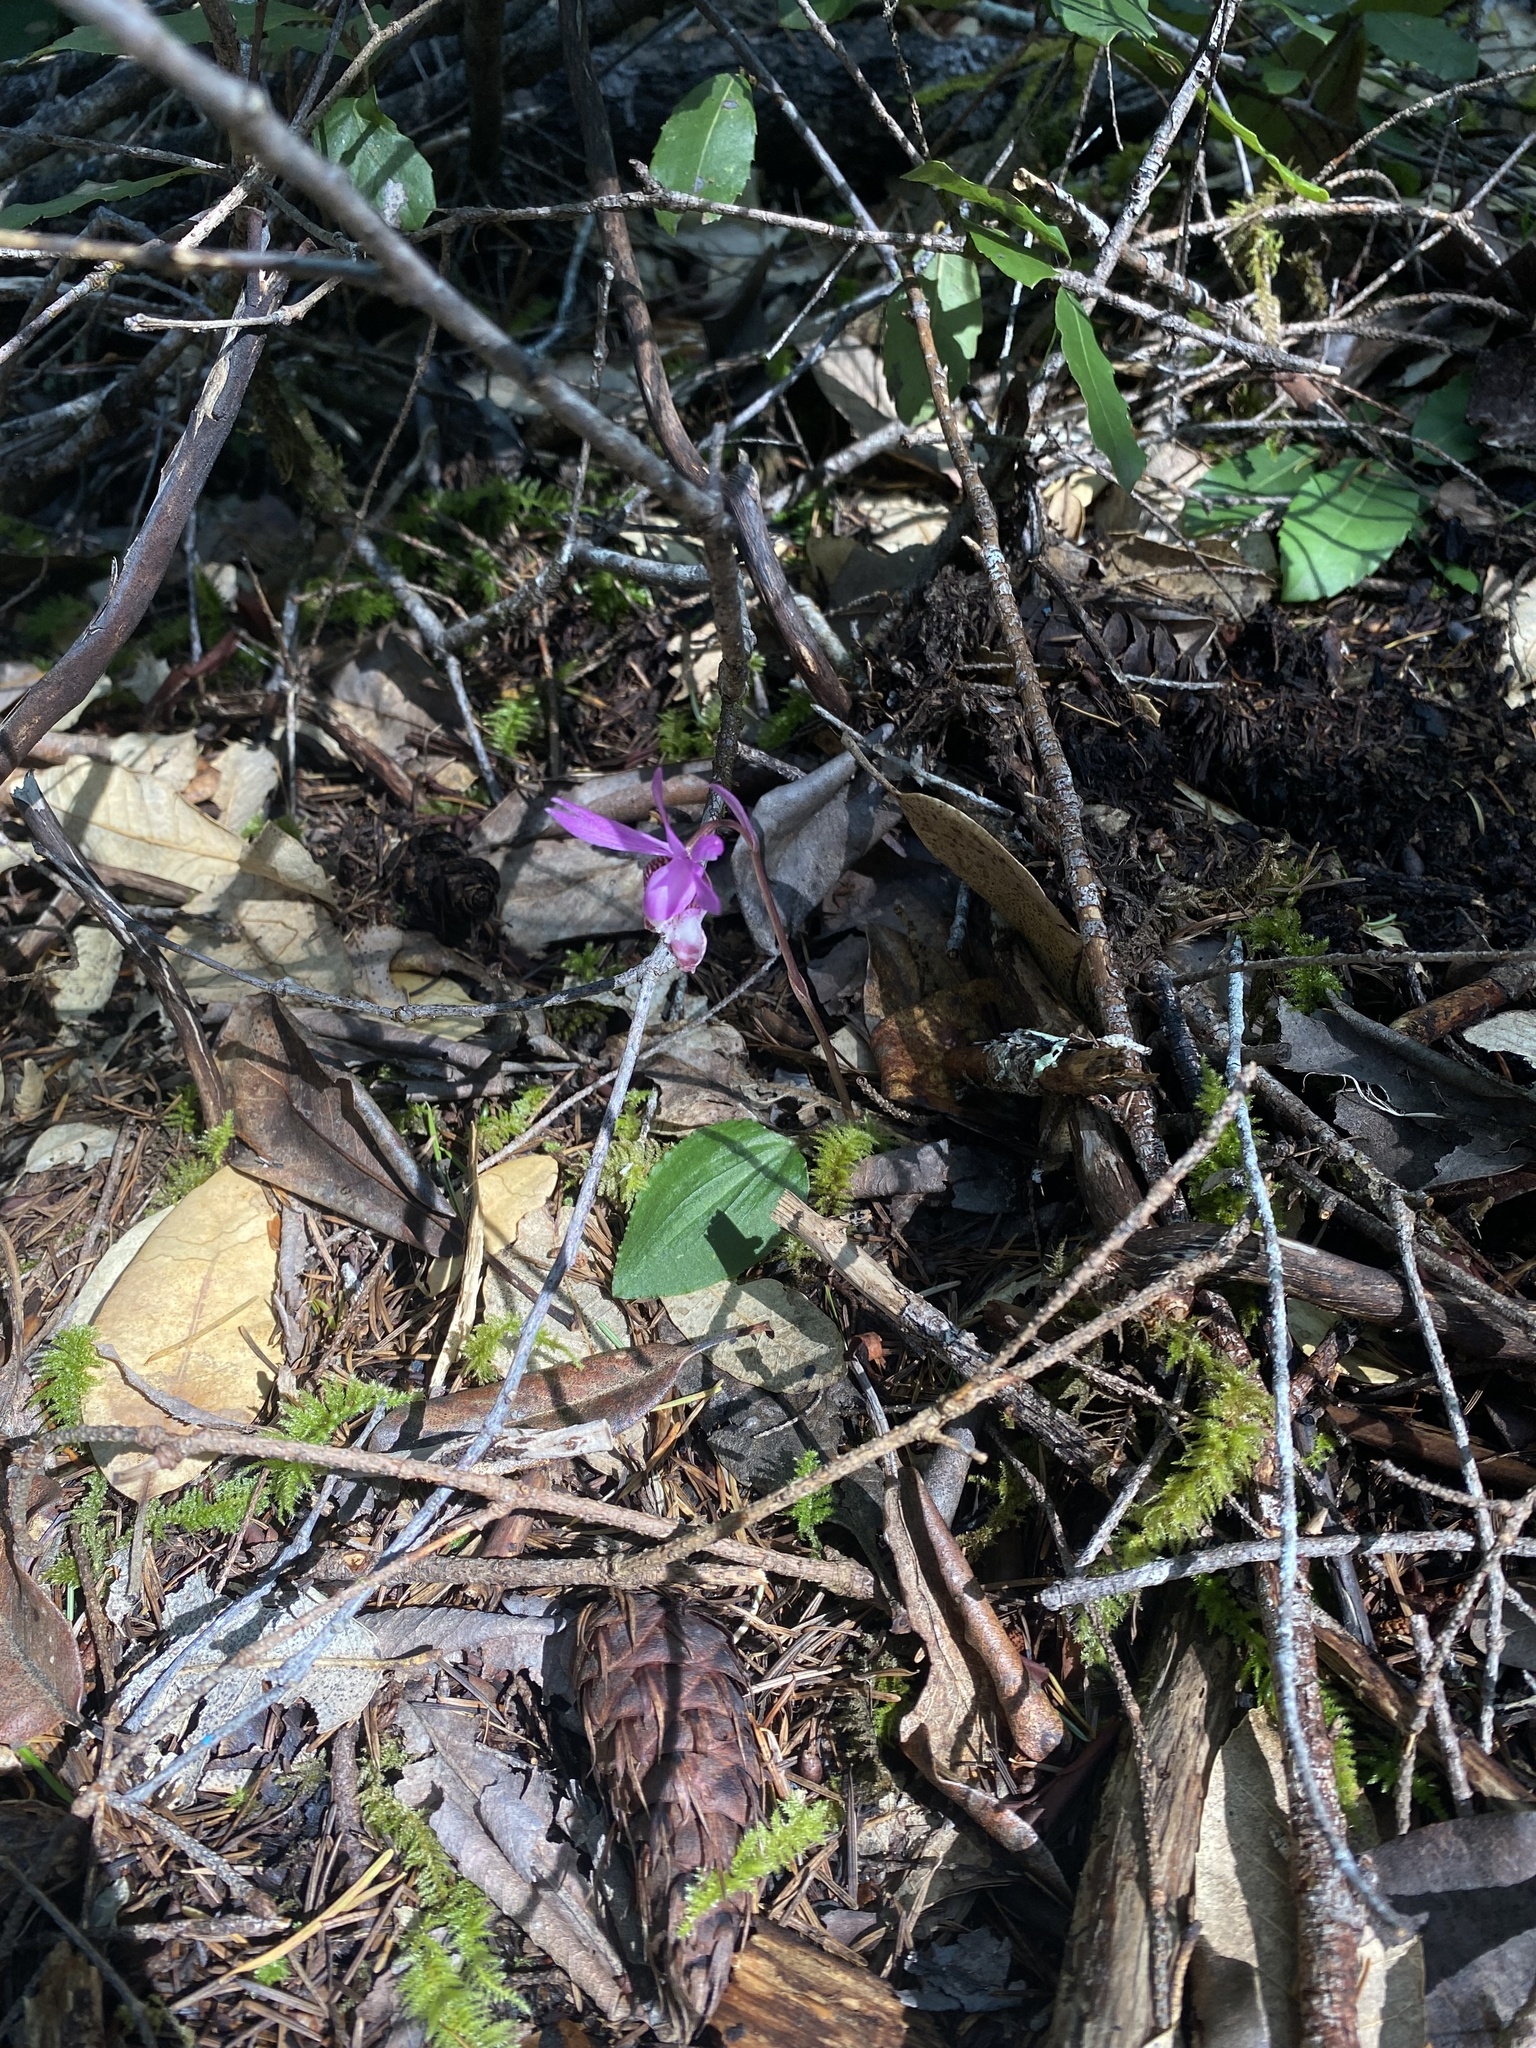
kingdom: Plantae
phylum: Tracheophyta
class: Liliopsida
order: Asparagales
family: Orchidaceae
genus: Calypso
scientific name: Calypso bulbosa
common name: Calypso
